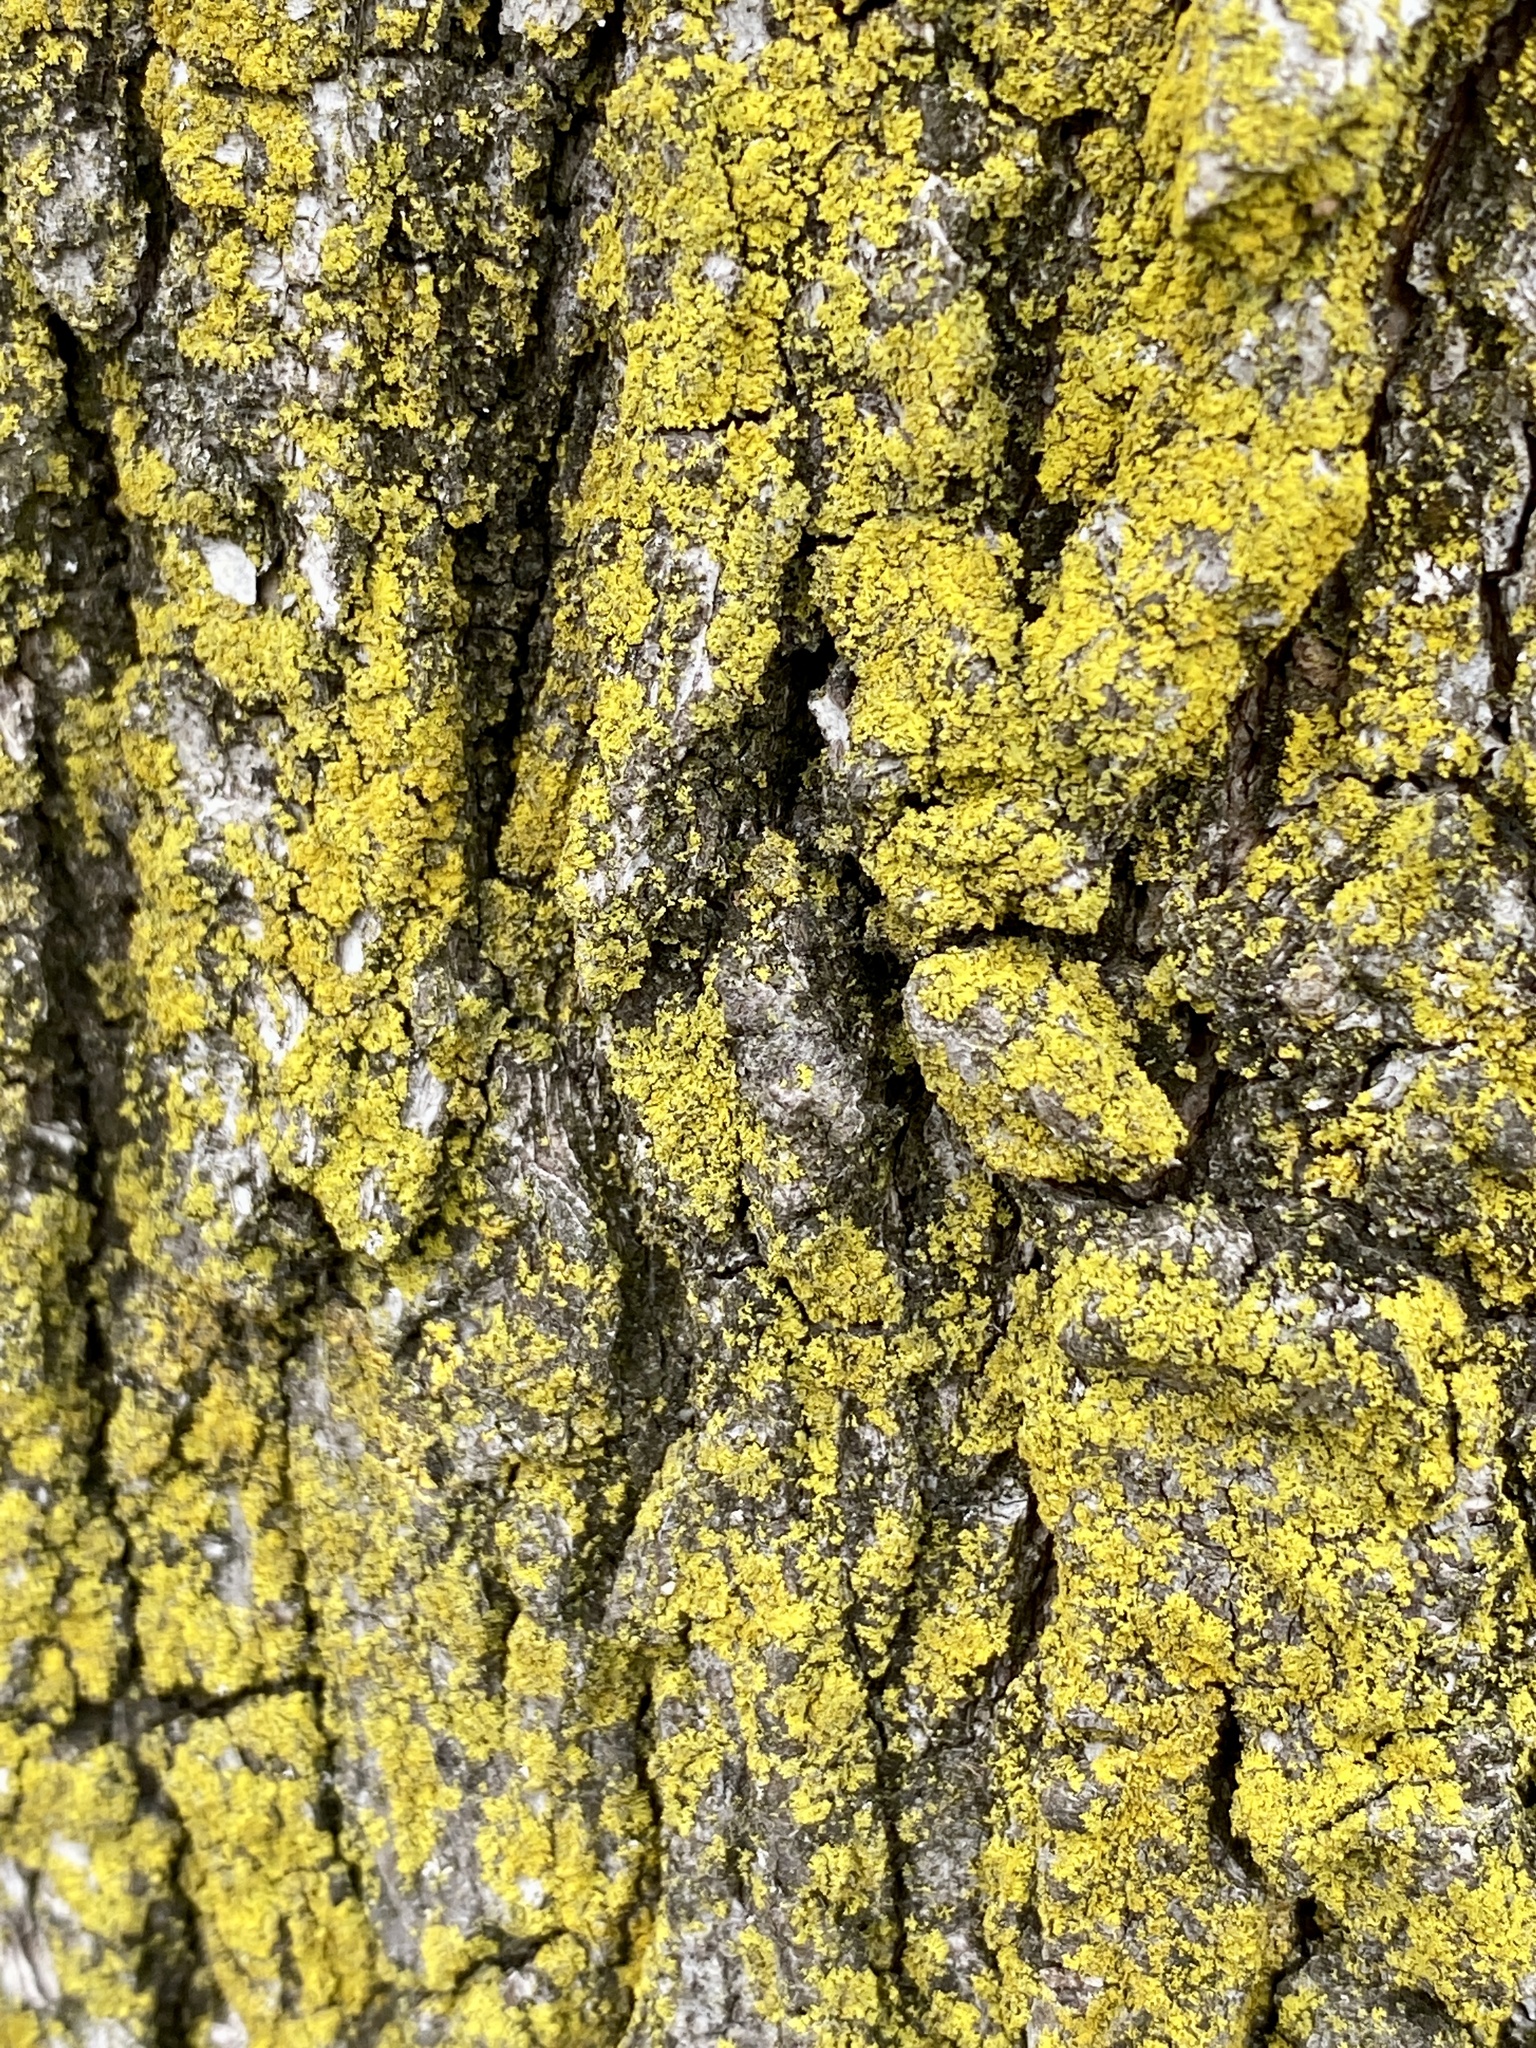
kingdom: Fungi
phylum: Ascomycota
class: Candelariomycetes
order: Candelariales
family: Candelariaceae
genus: Candelaria
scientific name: Candelaria concolor
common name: Candleflame lichen
